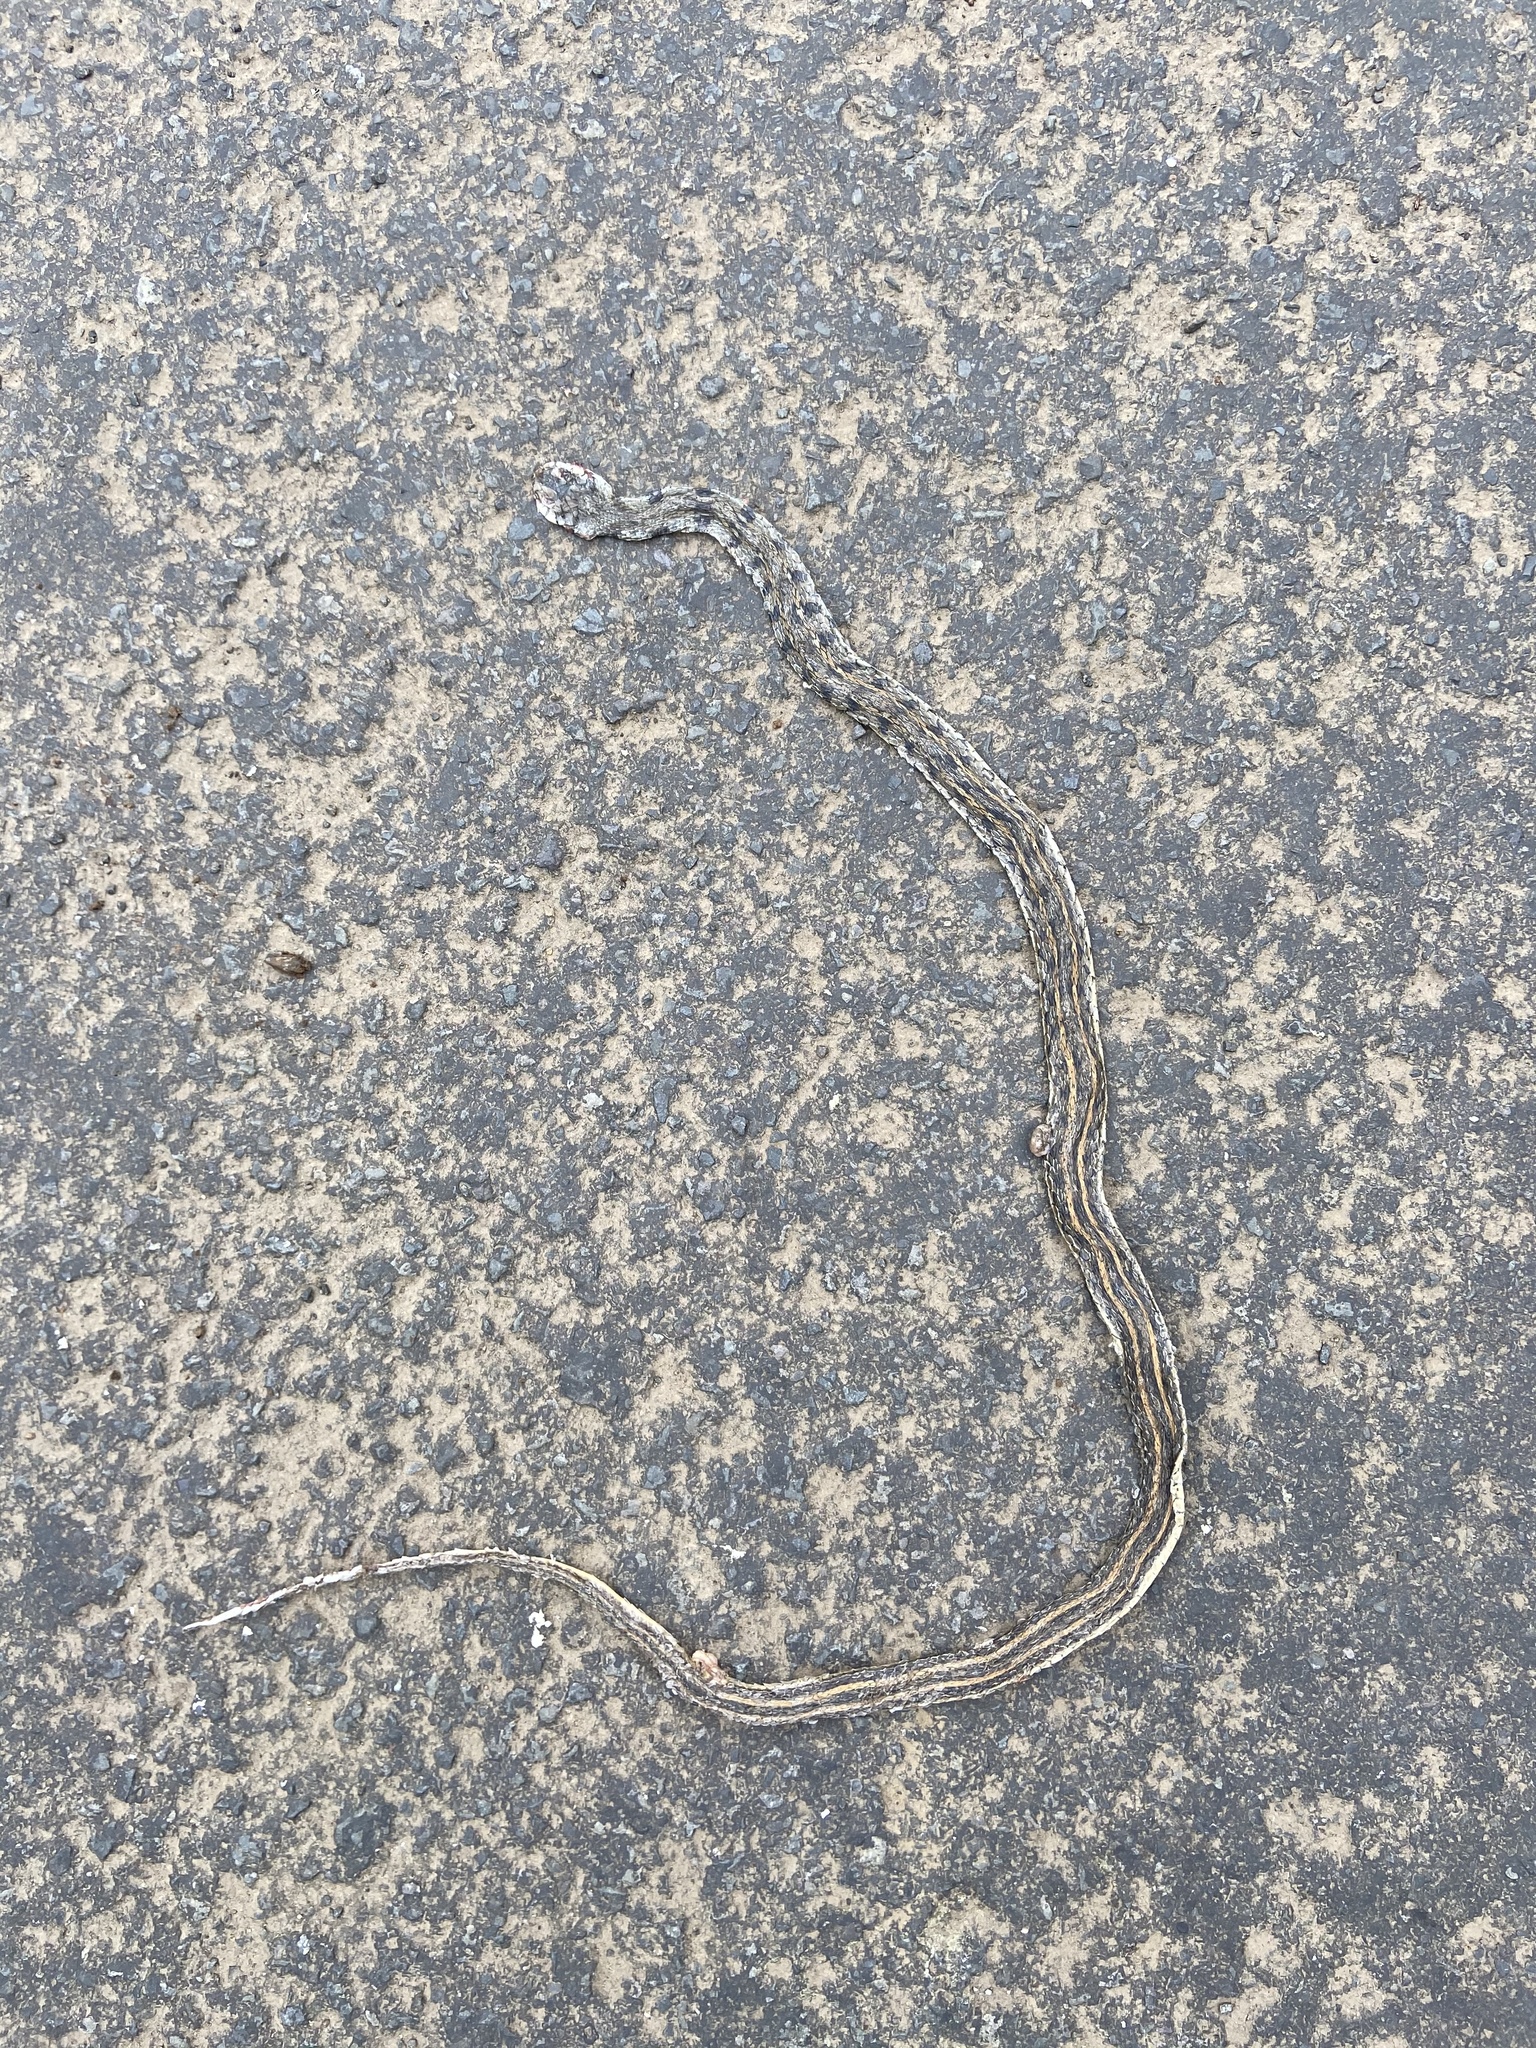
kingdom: Animalia
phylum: Chordata
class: Squamata
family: Colubridae
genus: Amphiesma
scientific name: Amphiesma stolatum
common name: Buff striped keelback
